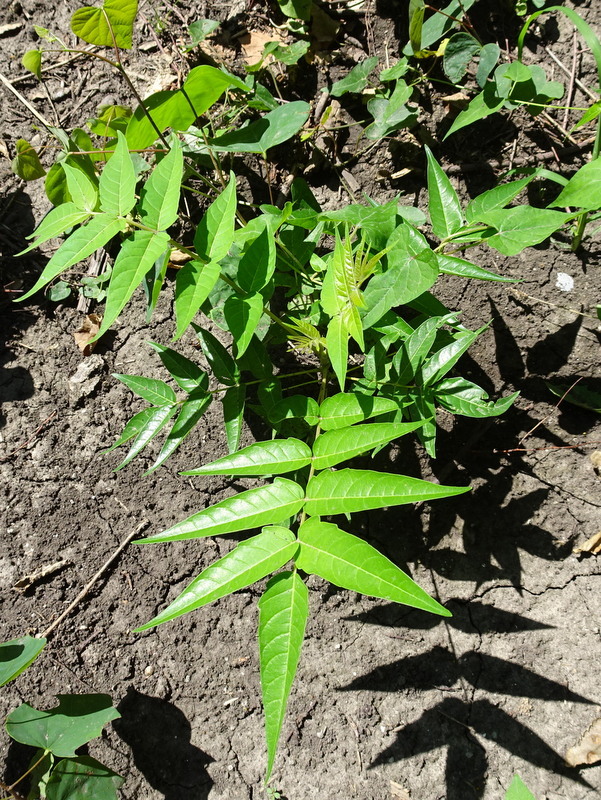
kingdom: Plantae
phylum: Tracheophyta
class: Magnoliopsida
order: Sapindales
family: Simaroubaceae
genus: Ailanthus
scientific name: Ailanthus altissima
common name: Tree-of-heaven
